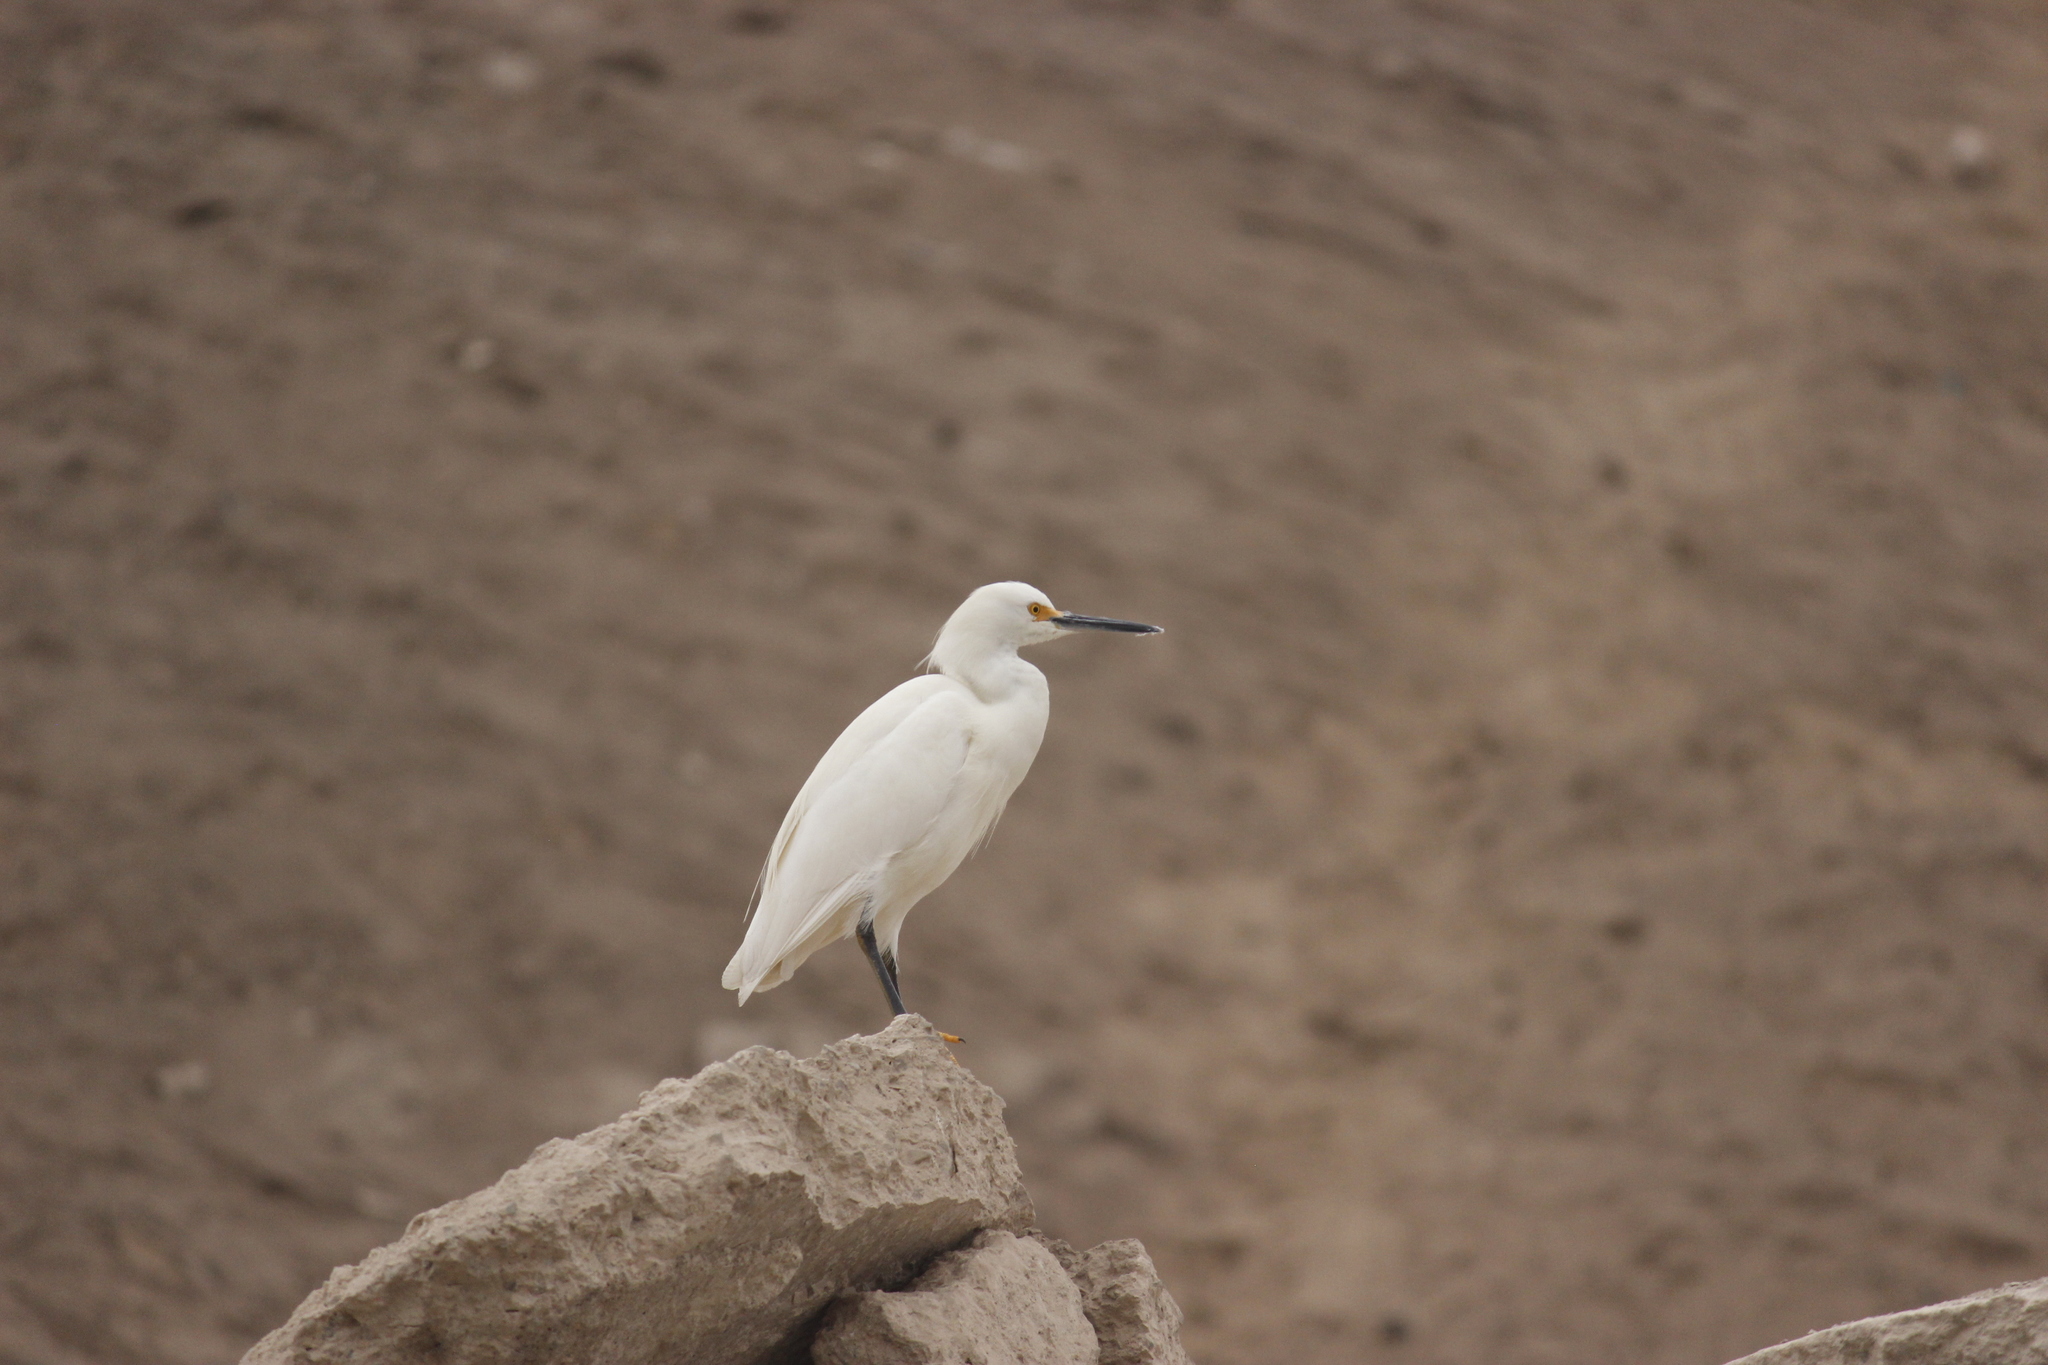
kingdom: Animalia
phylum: Chordata
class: Aves
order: Pelecaniformes
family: Ardeidae
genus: Egretta
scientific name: Egretta thula
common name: Snowy egret
